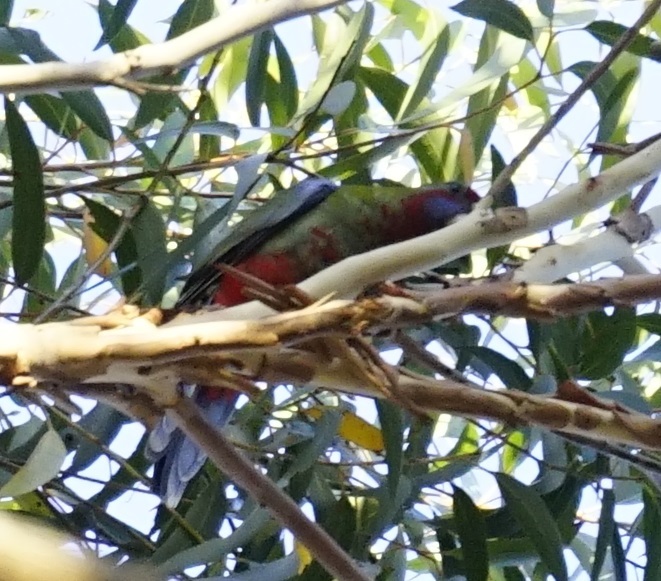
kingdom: Animalia
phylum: Chordata
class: Aves
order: Psittaciformes
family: Psittacidae
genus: Platycercus
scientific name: Platycercus elegans
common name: Crimson rosella
